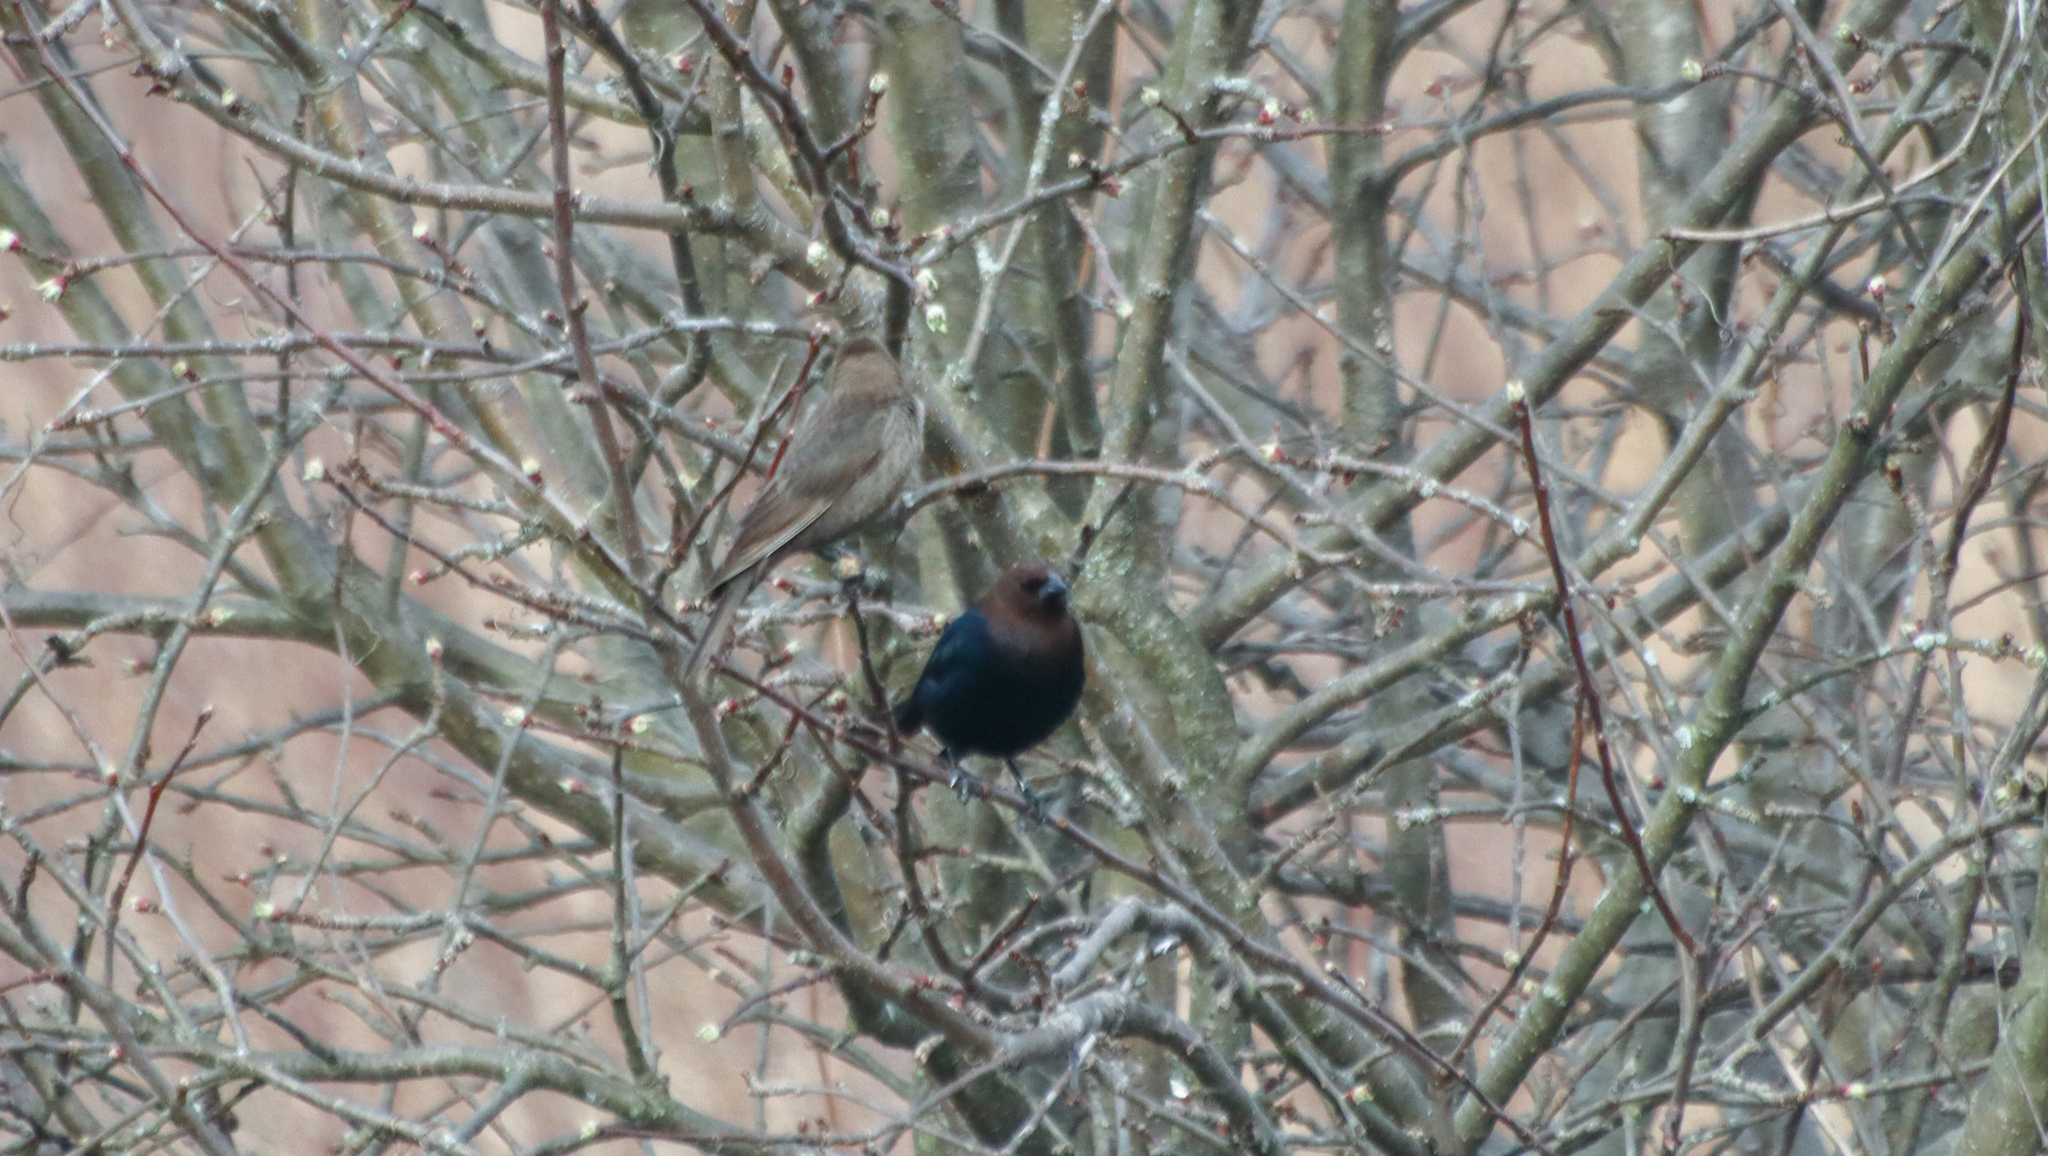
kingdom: Animalia
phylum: Chordata
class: Aves
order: Passeriformes
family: Icteridae
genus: Molothrus
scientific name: Molothrus ater
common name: Brown-headed cowbird
